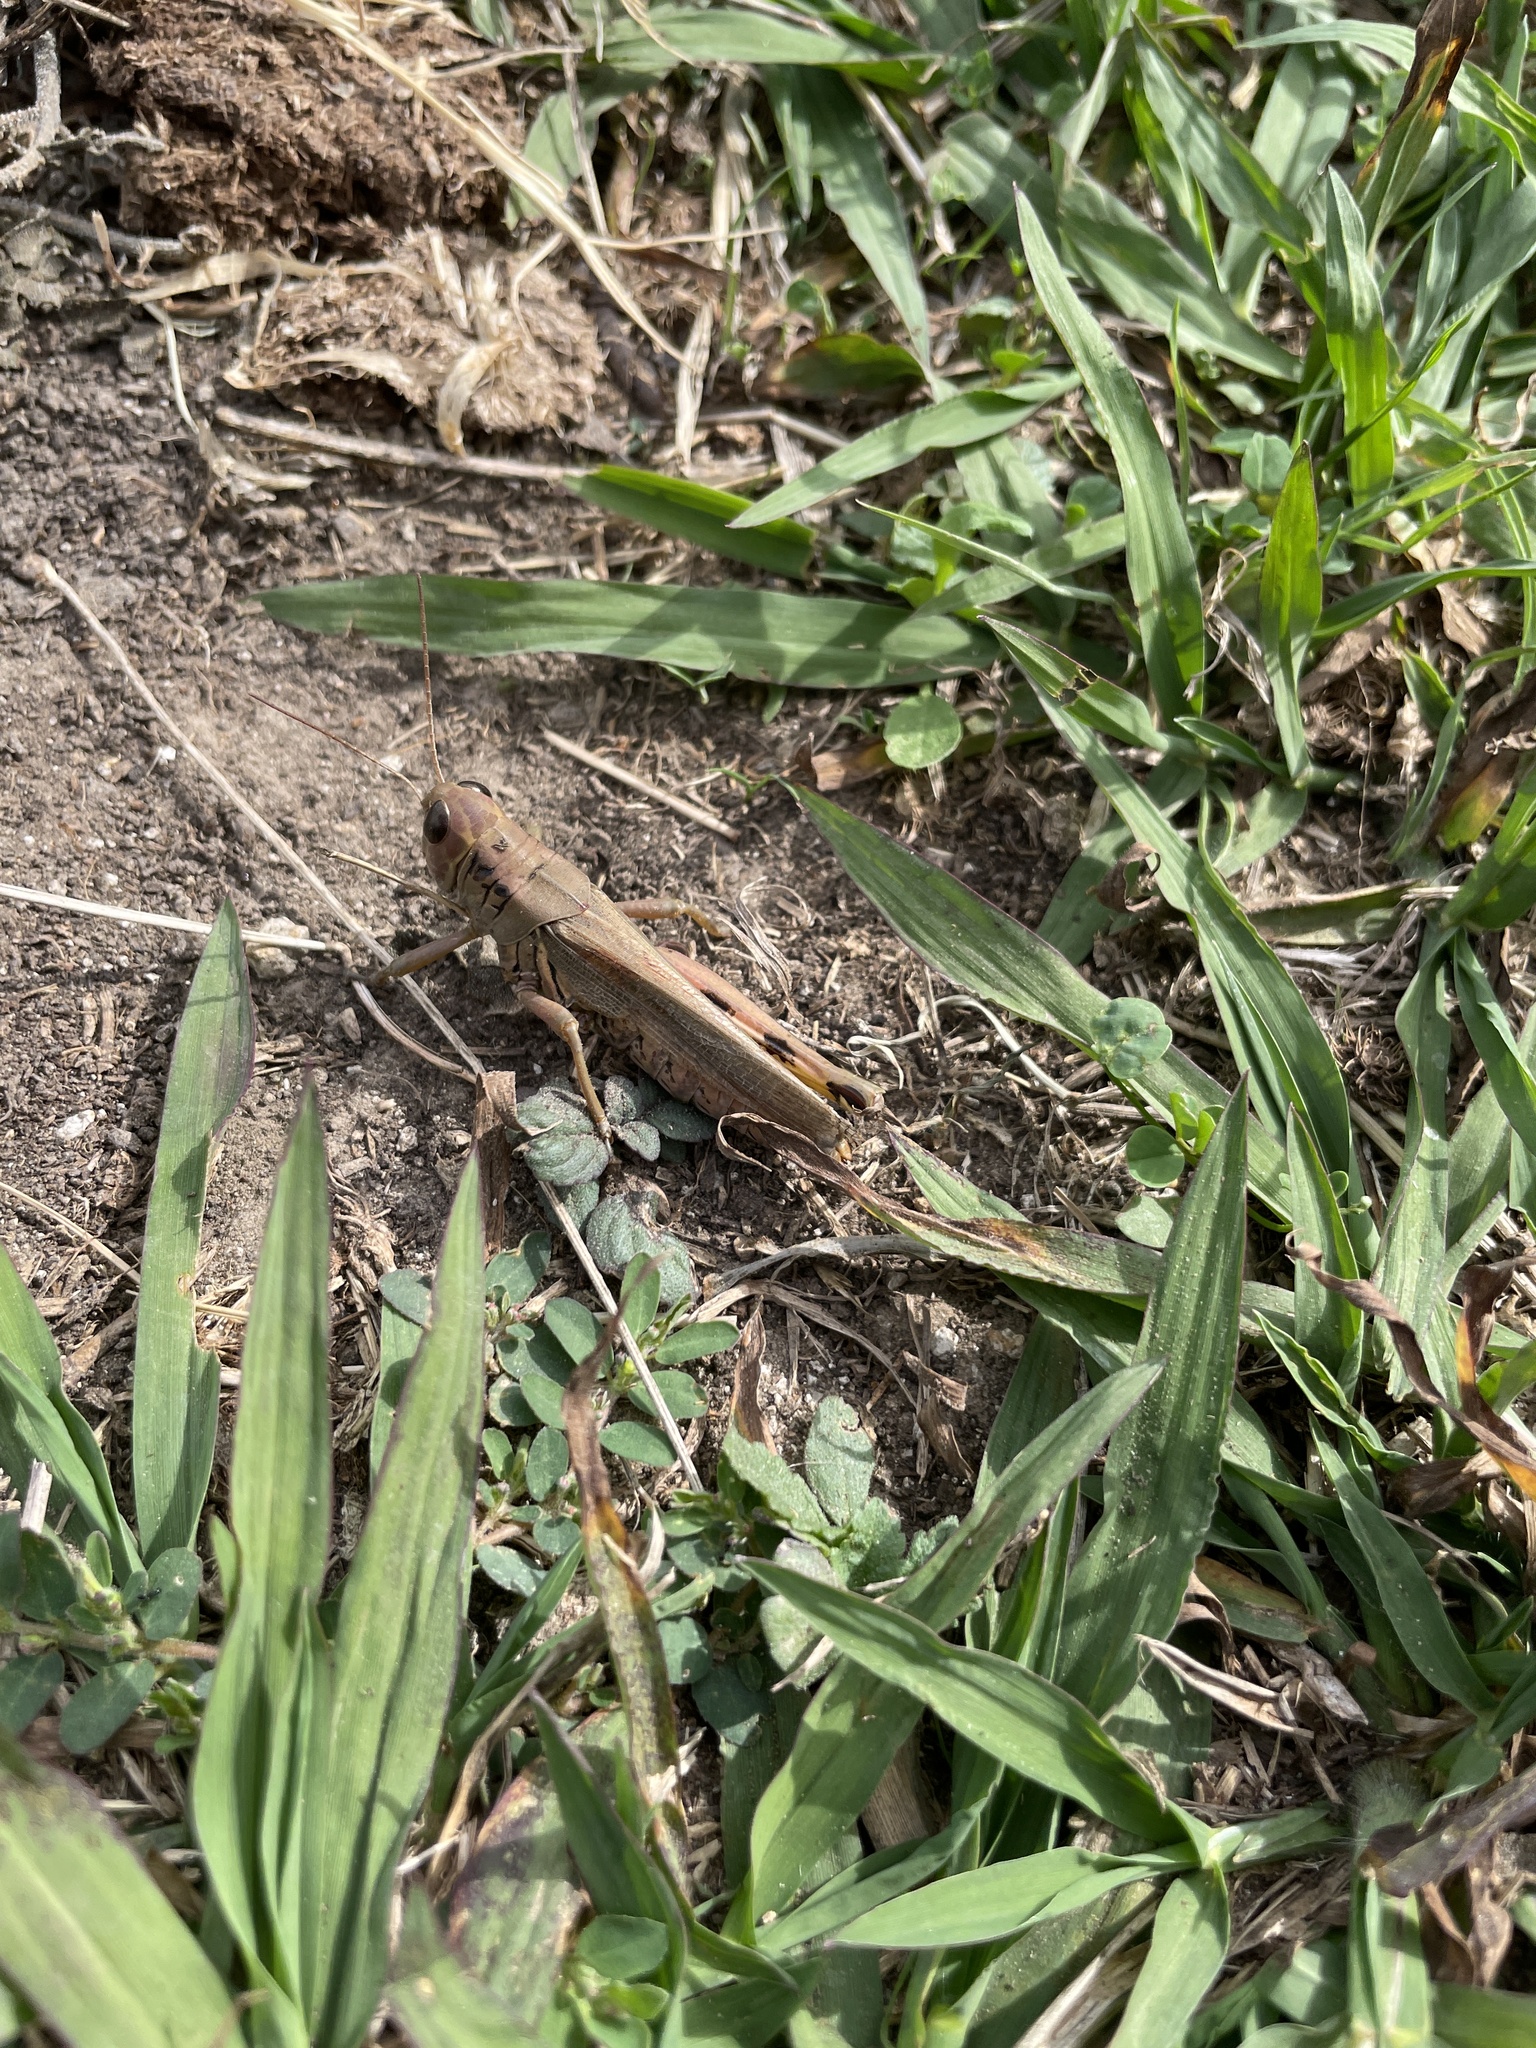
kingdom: Animalia
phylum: Arthropoda
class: Insecta
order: Orthoptera
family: Acrididae
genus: Melanoplus
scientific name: Melanoplus differentialis
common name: Differential grasshopper
